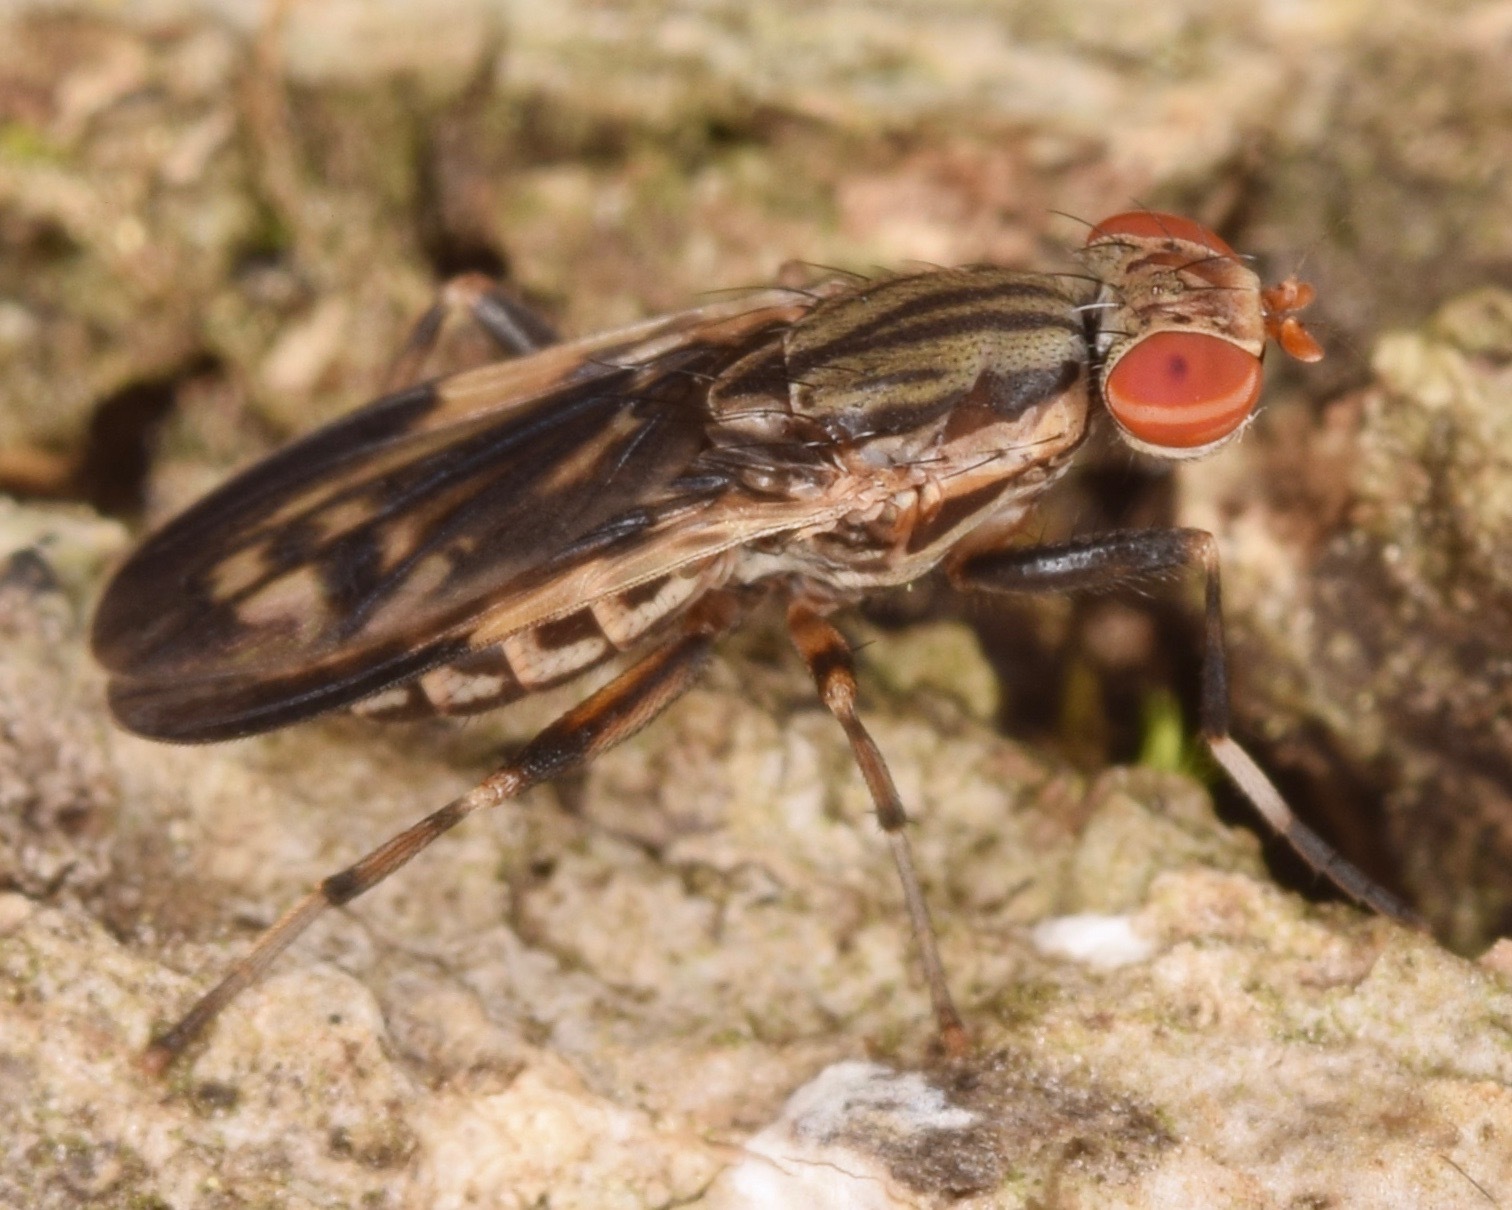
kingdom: Animalia
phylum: Arthropoda
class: Insecta
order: Diptera
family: Sciomyzidae
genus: Pherbellia
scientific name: Pherbellia albovaria
